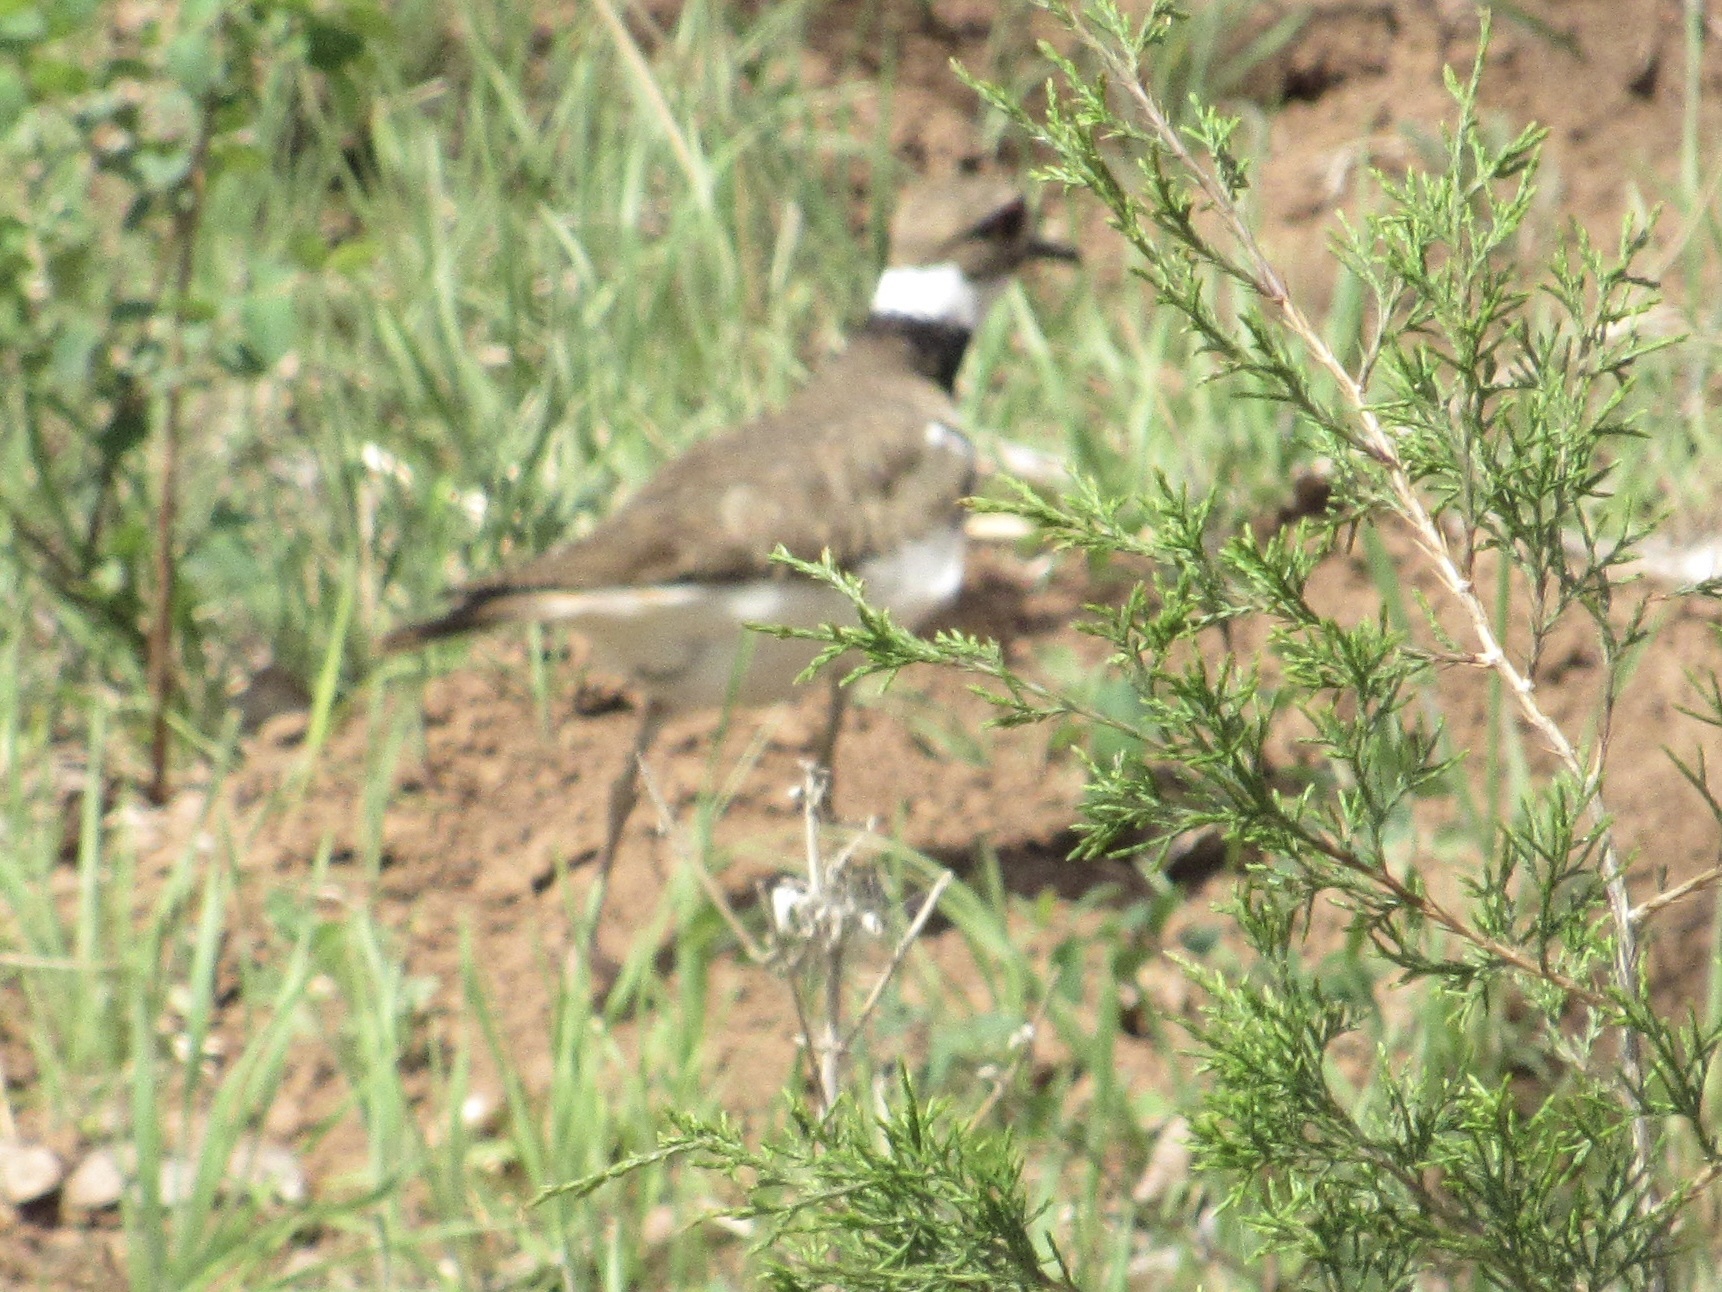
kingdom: Animalia
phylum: Chordata
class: Aves
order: Charadriiformes
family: Charadriidae
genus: Charadrius
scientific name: Charadrius vociferus
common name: Killdeer
